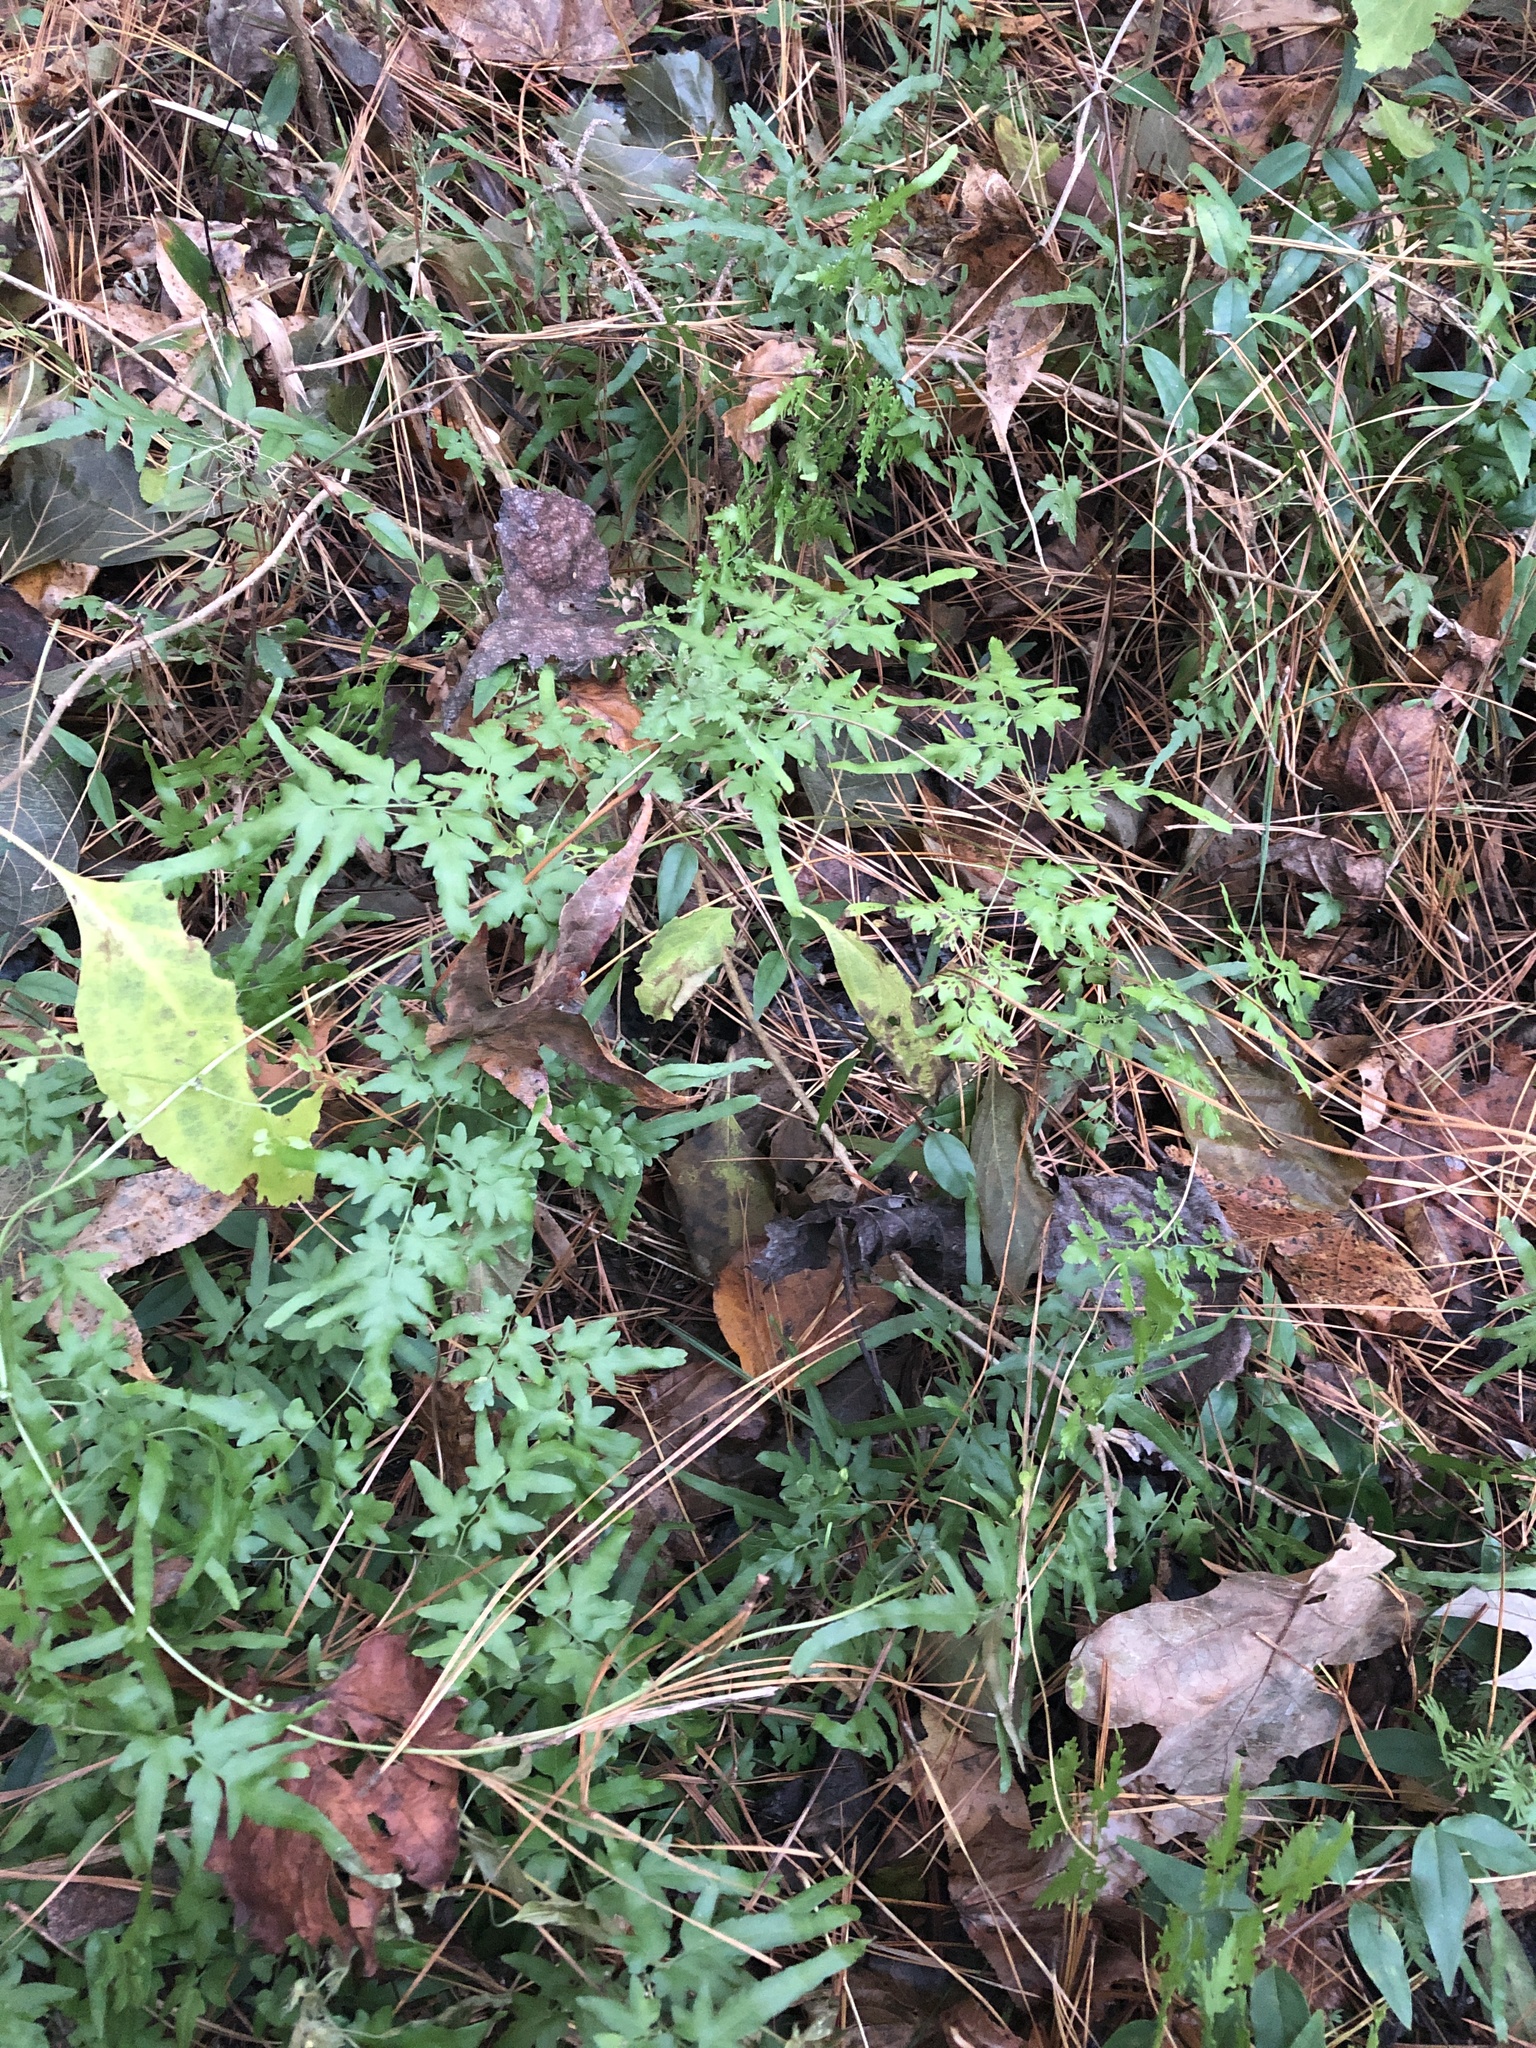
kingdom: Plantae
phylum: Tracheophyta
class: Polypodiopsida
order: Schizaeales
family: Lygodiaceae
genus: Lygodium
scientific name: Lygodium japonicum
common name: Japanese climbing fern
